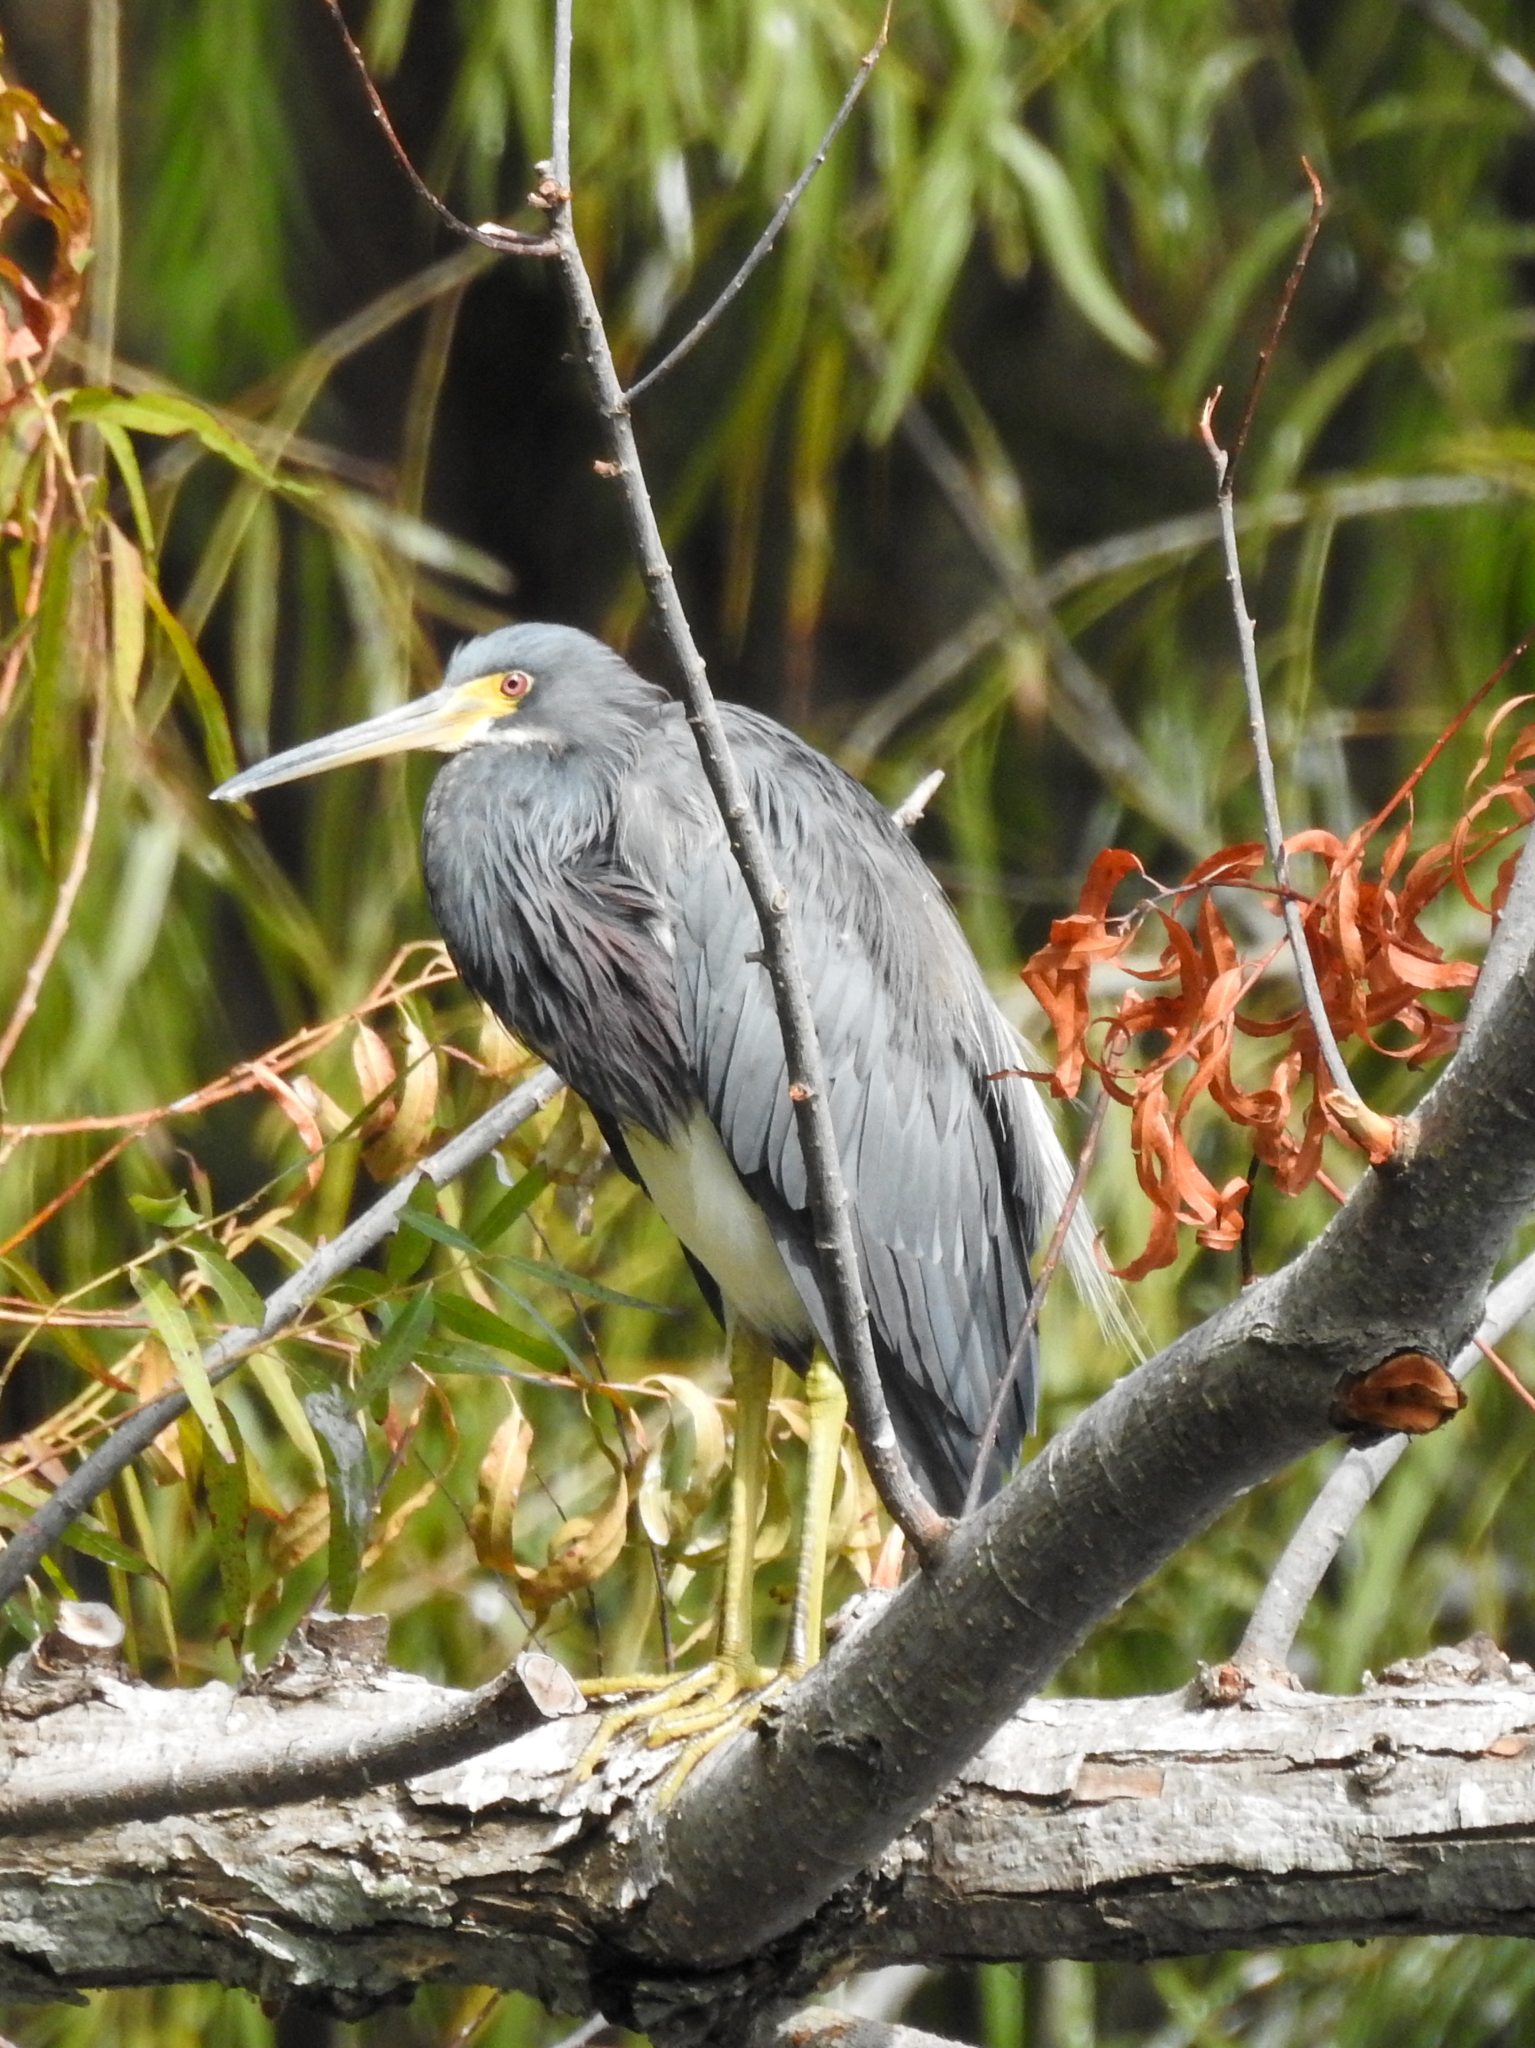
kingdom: Animalia
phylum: Chordata
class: Aves
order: Pelecaniformes
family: Ardeidae
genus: Egretta
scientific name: Egretta tricolor
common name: Tricolored heron
